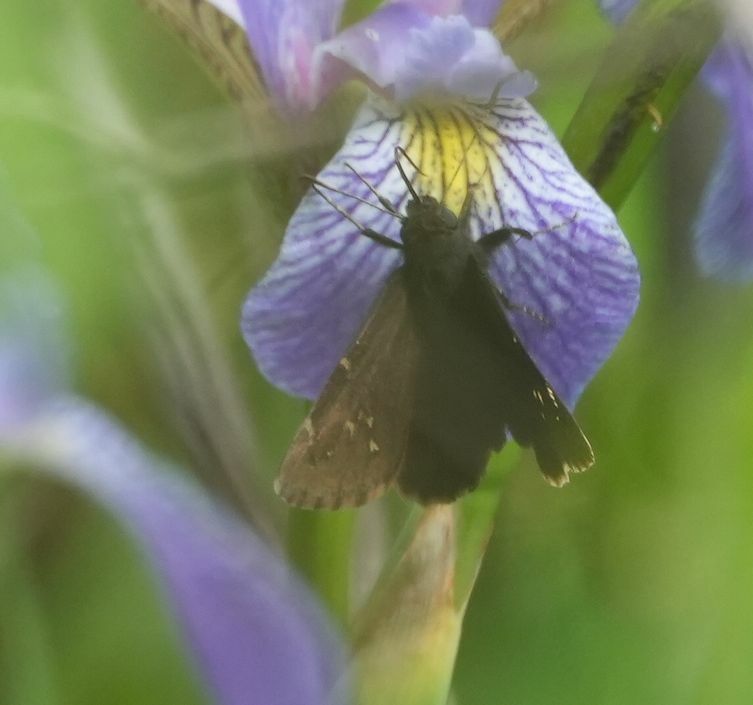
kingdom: Animalia
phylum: Arthropoda
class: Insecta
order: Lepidoptera
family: Hesperiidae
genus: Thorybes
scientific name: Thorybes pylades
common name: Northern cloudywing
